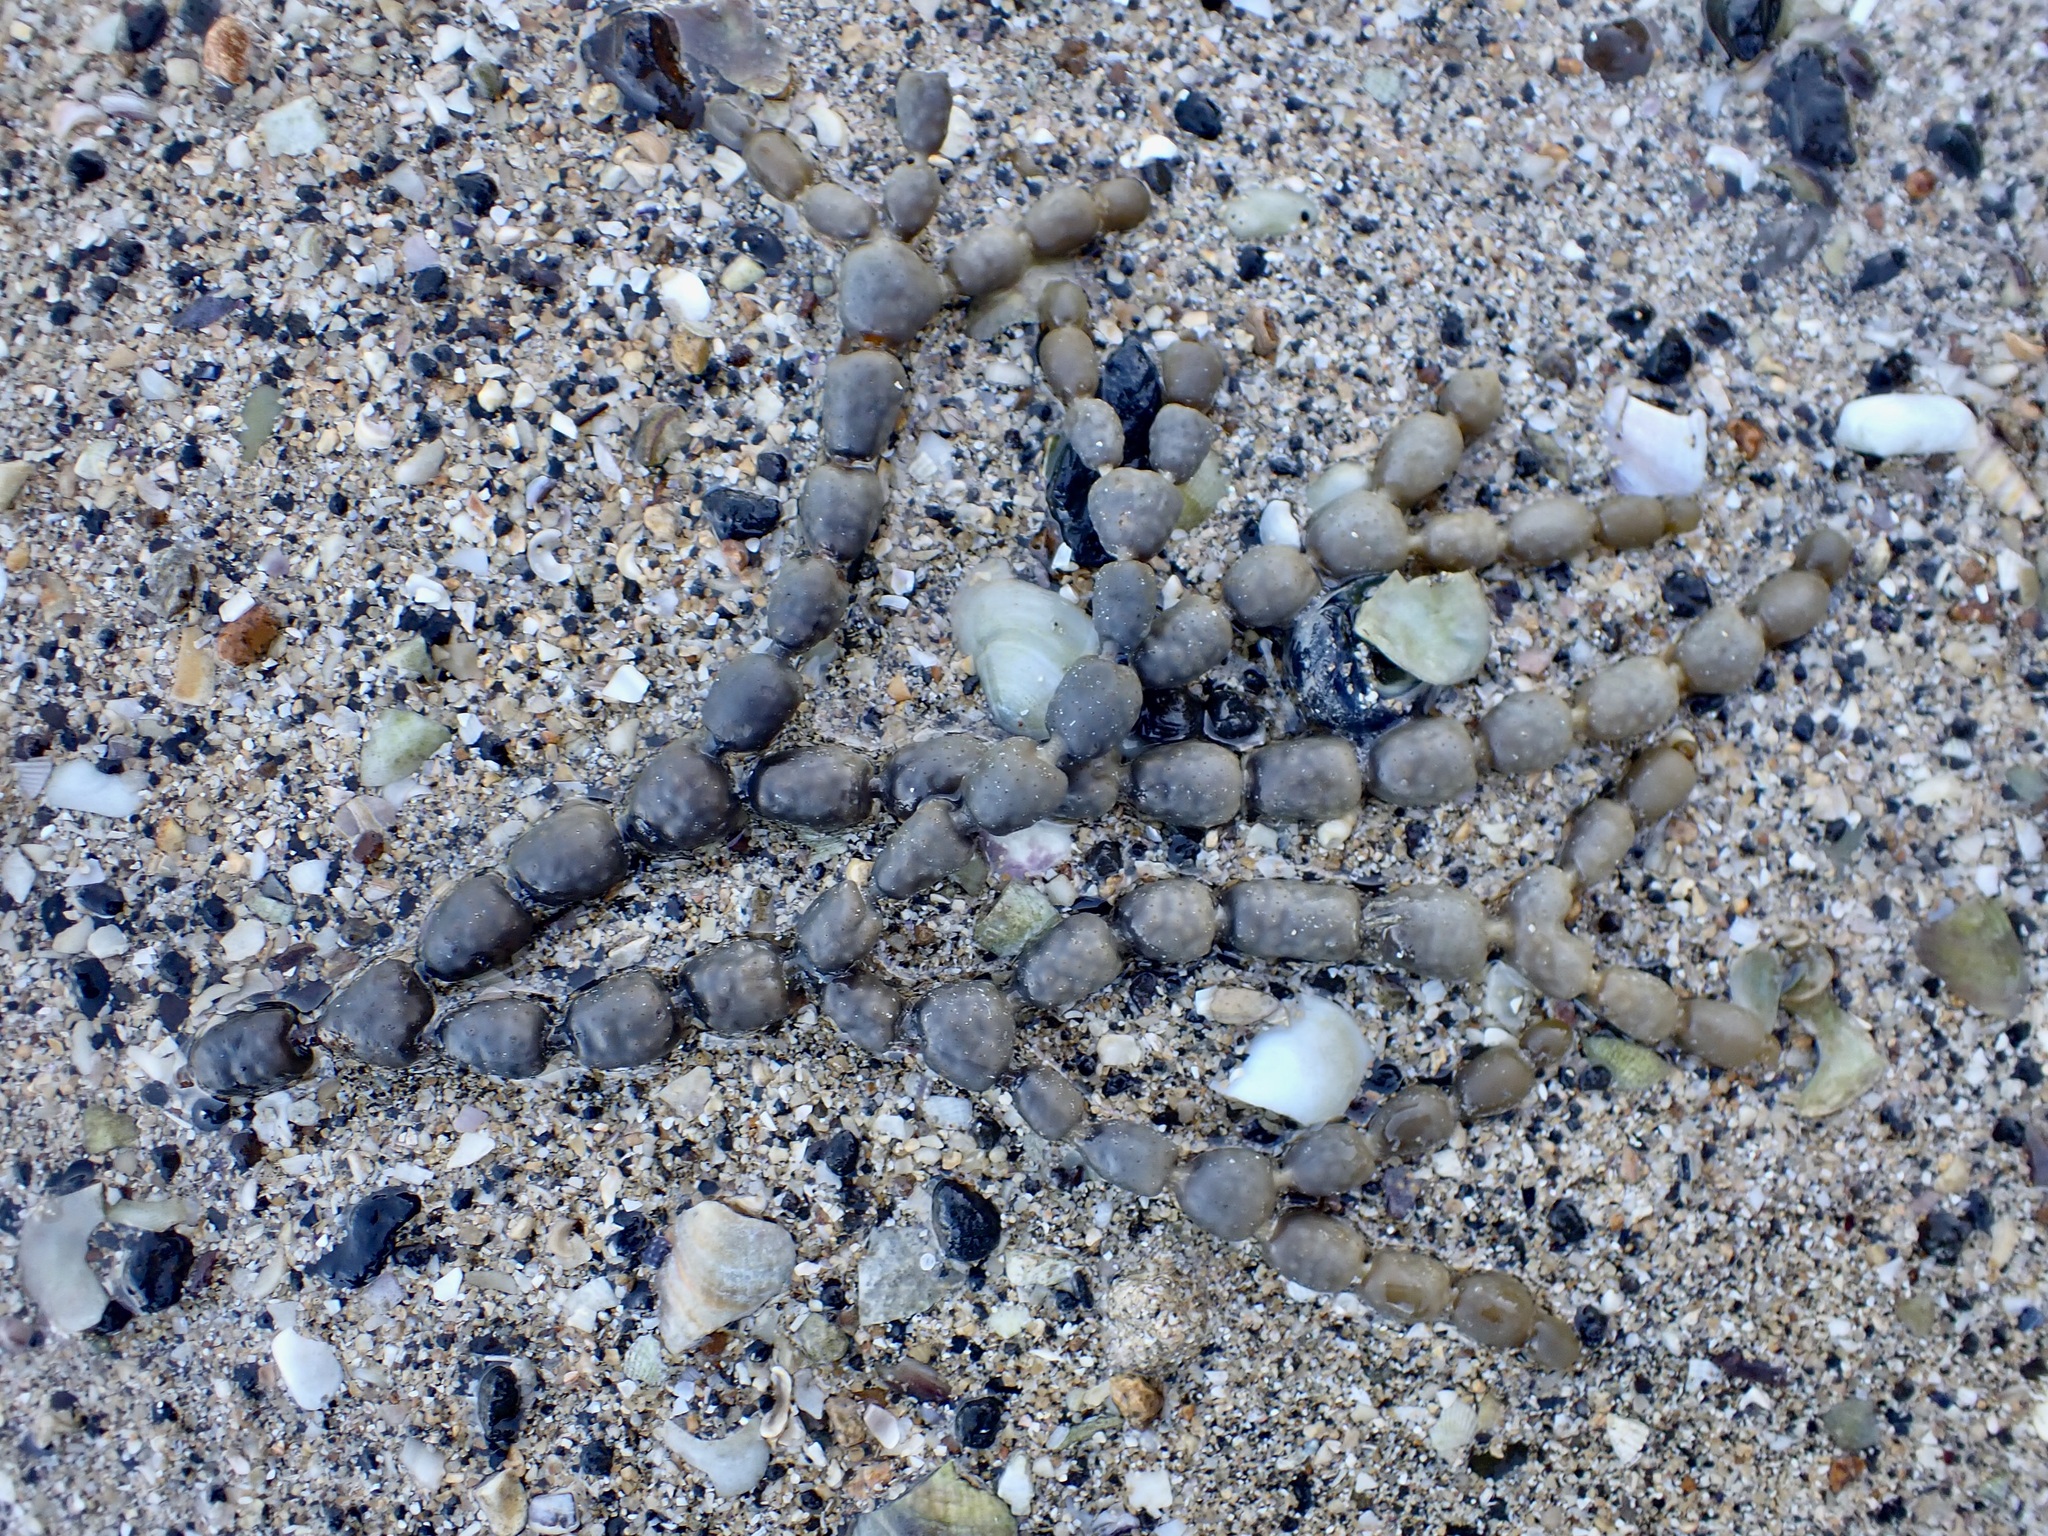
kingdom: Chromista
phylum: Ochrophyta
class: Phaeophyceae
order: Fucales
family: Hormosiraceae
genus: Hormosira
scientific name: Hormosira banksii
